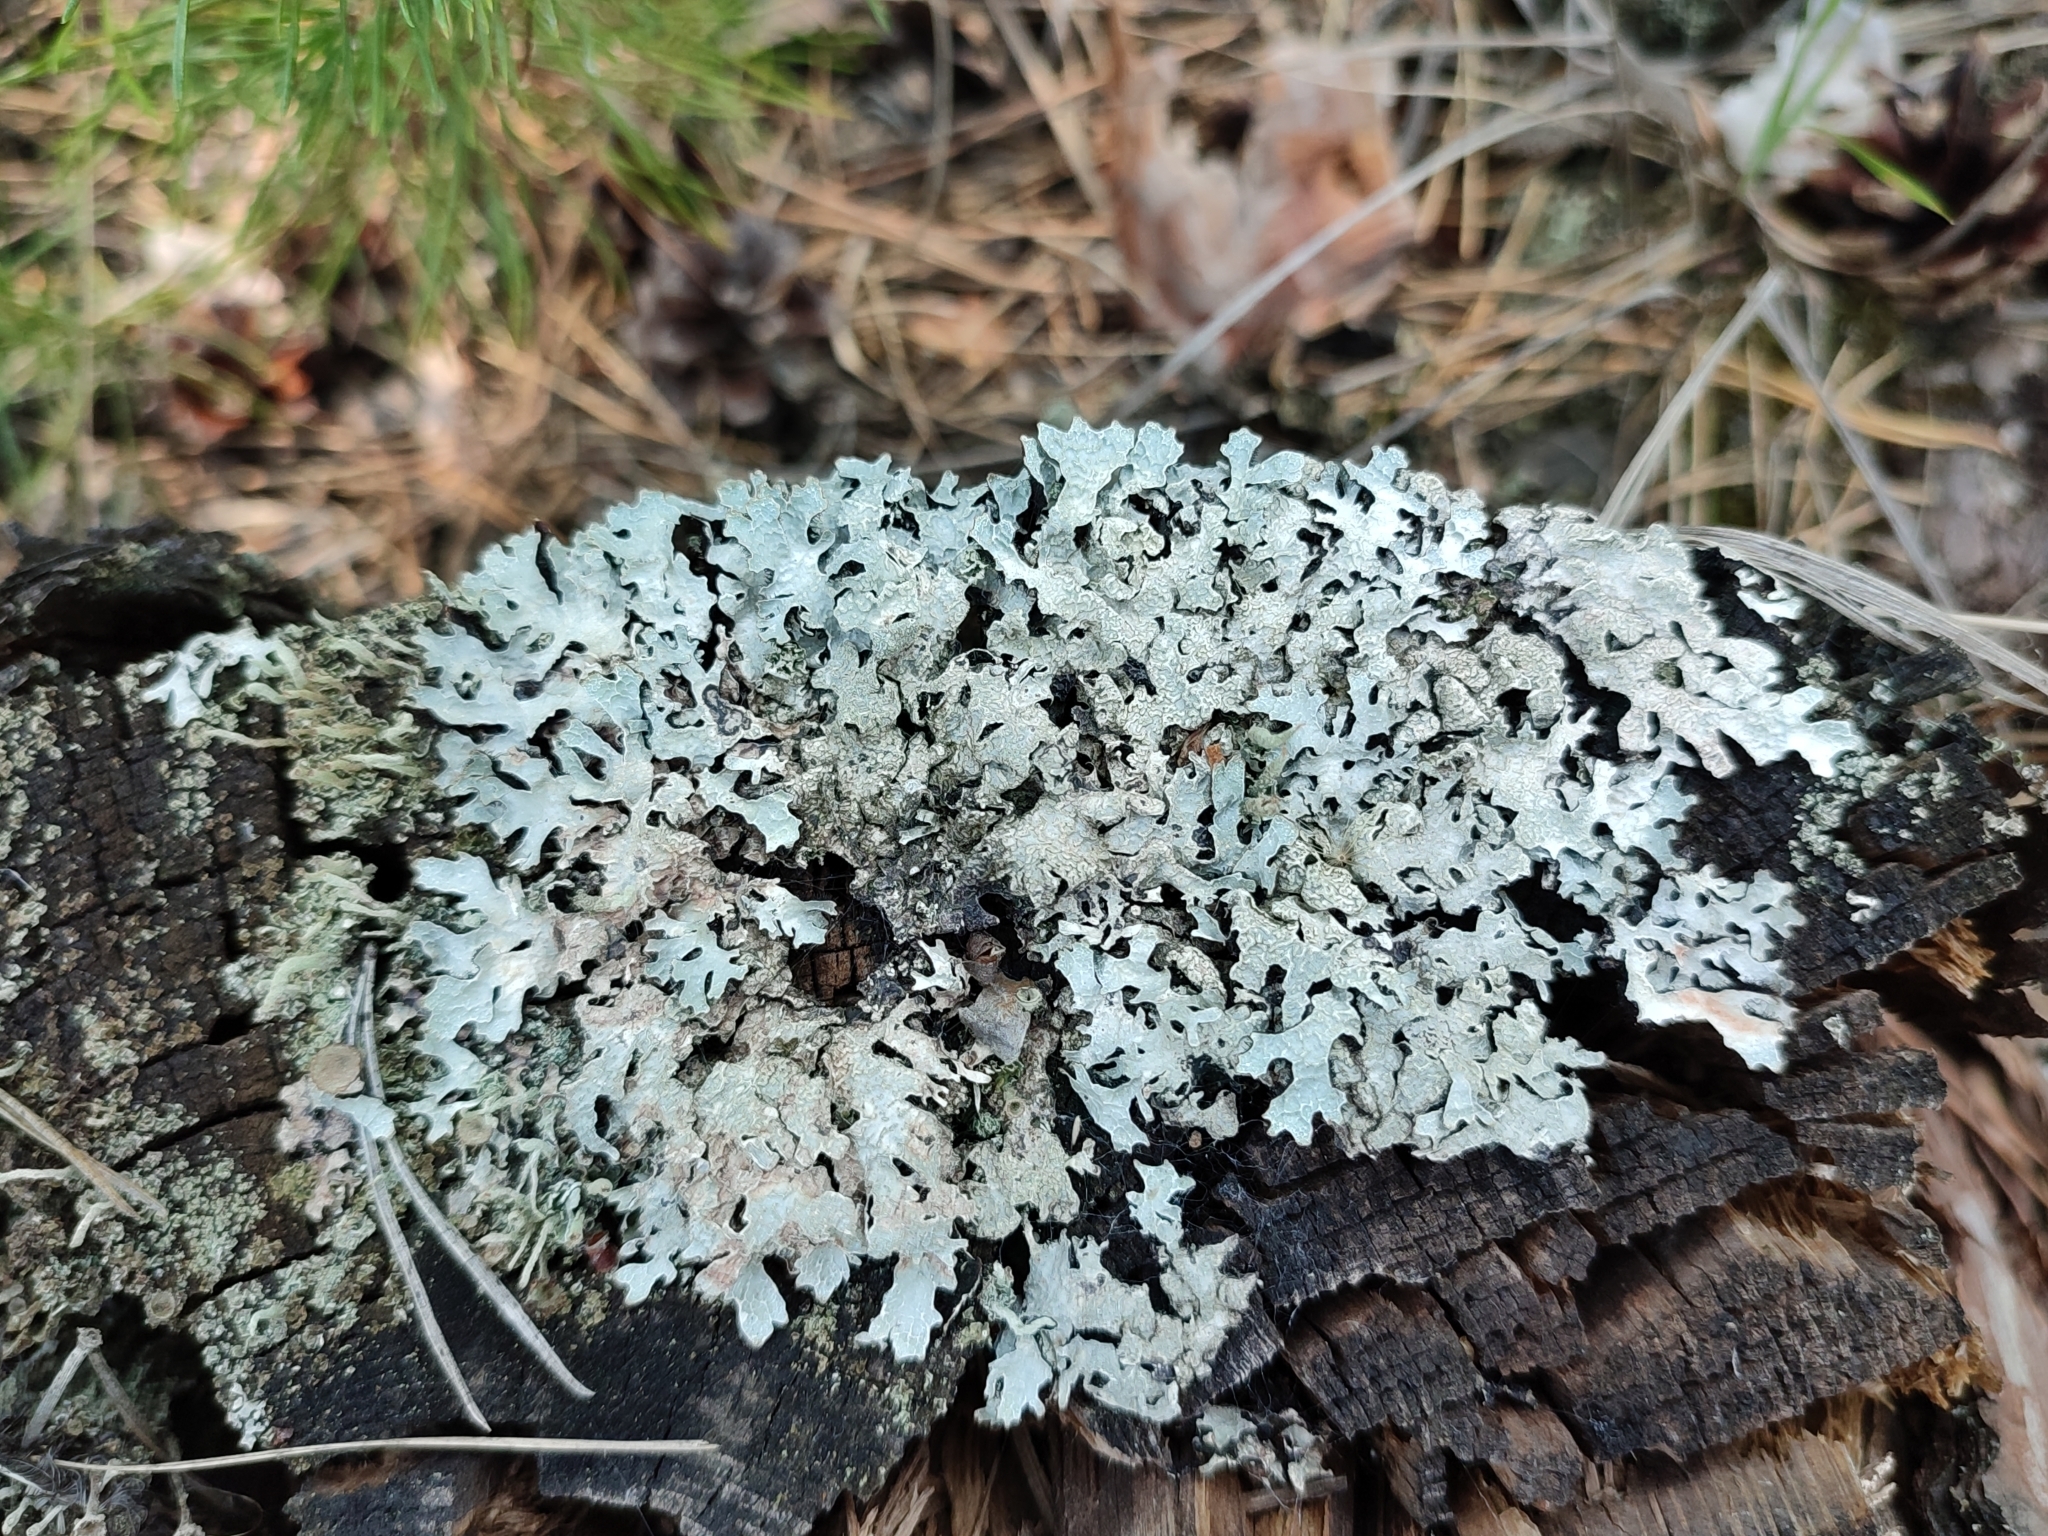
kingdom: Fungi
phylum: Ascomycota
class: Lecanoromycetes
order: Lecanorales
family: Parmeliaceae
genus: Parmelia
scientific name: Parmelia sulcata
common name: Netted shield lichen
